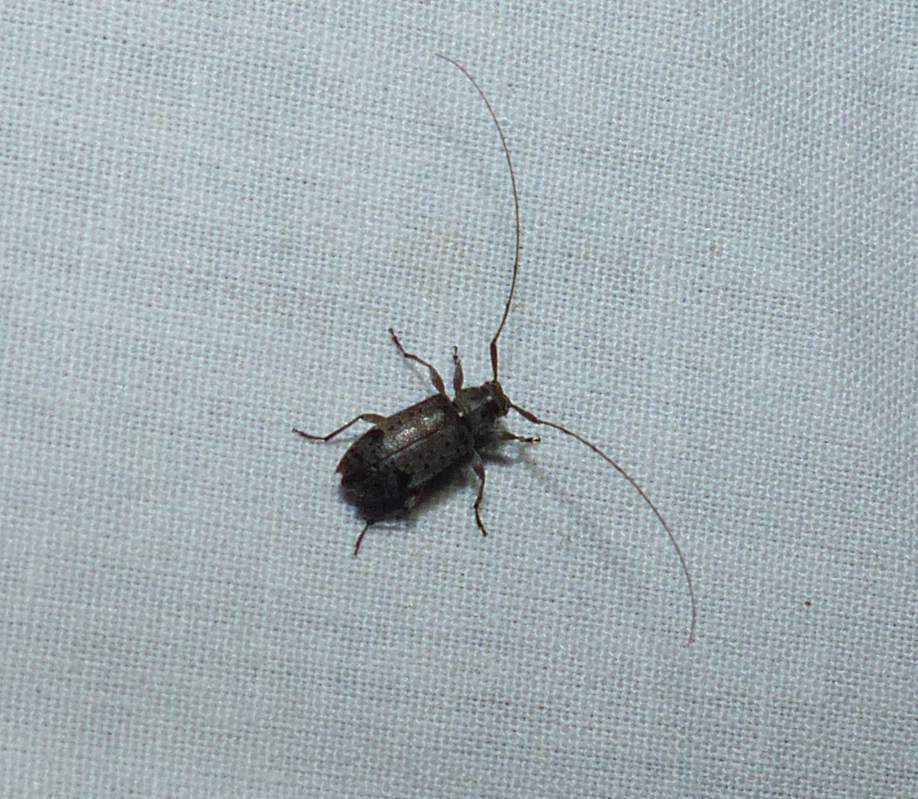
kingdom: Animalia
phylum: Arthropoda
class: Insecta
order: Coleoptera
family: Cerambycidae
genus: Hyperplatys
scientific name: Hyperplatys maculata
